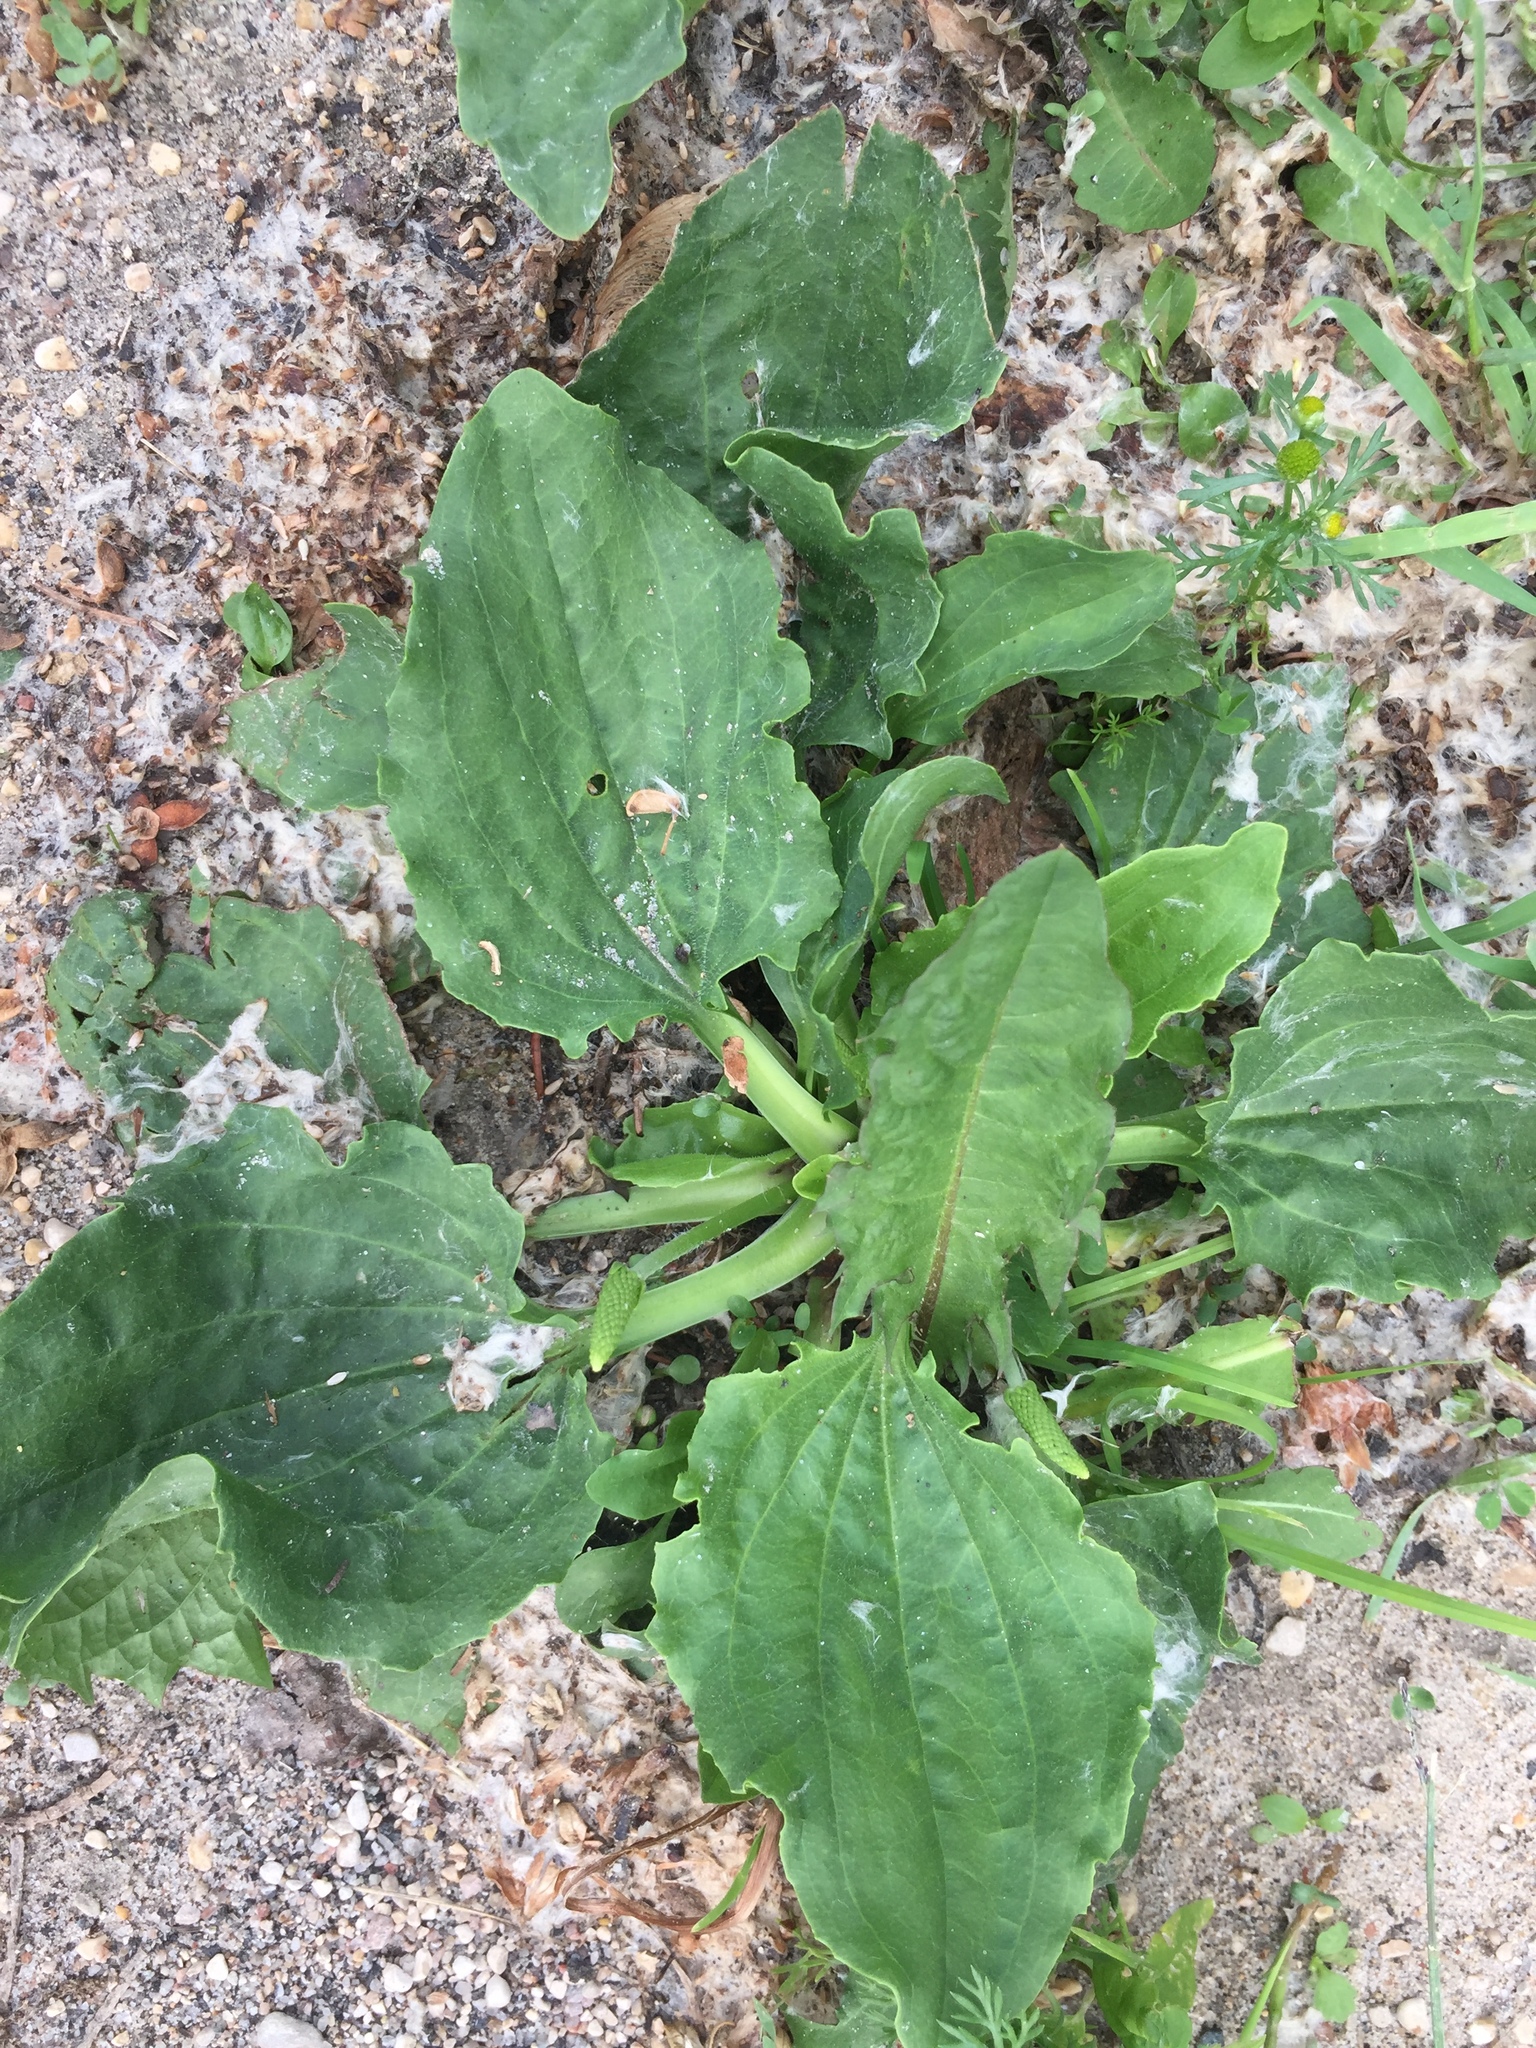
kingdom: Plantae
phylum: Tracheophyta
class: Magnoliopsida
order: Lamiales
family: Plantaginaceae
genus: Plantago
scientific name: Plantago major
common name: Common plantain
